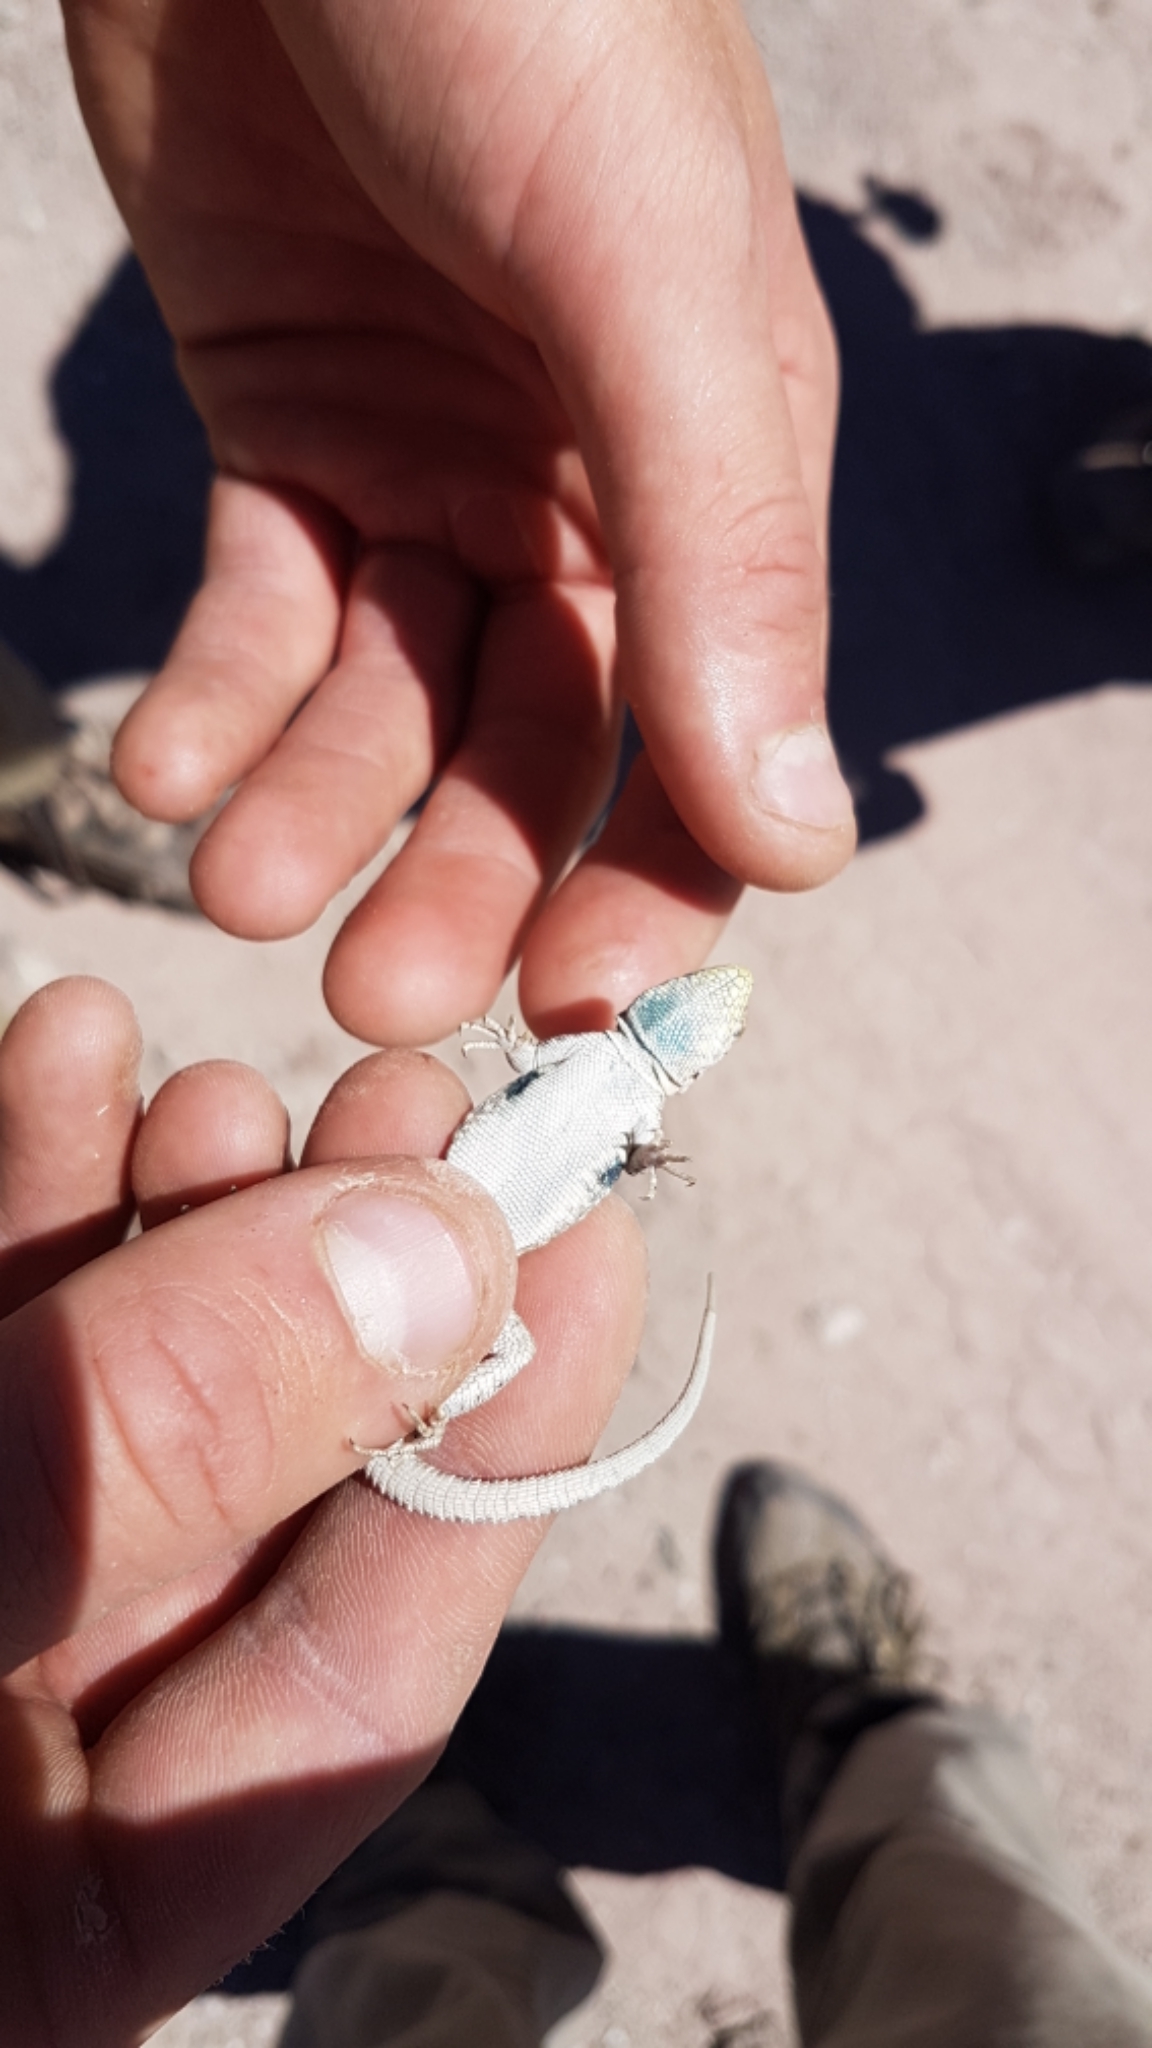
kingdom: Animalia
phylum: Chordata
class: Squamata
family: Phrynosomatidae
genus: Uta
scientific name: Uta stansburiana
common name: Side-blotched lizard
